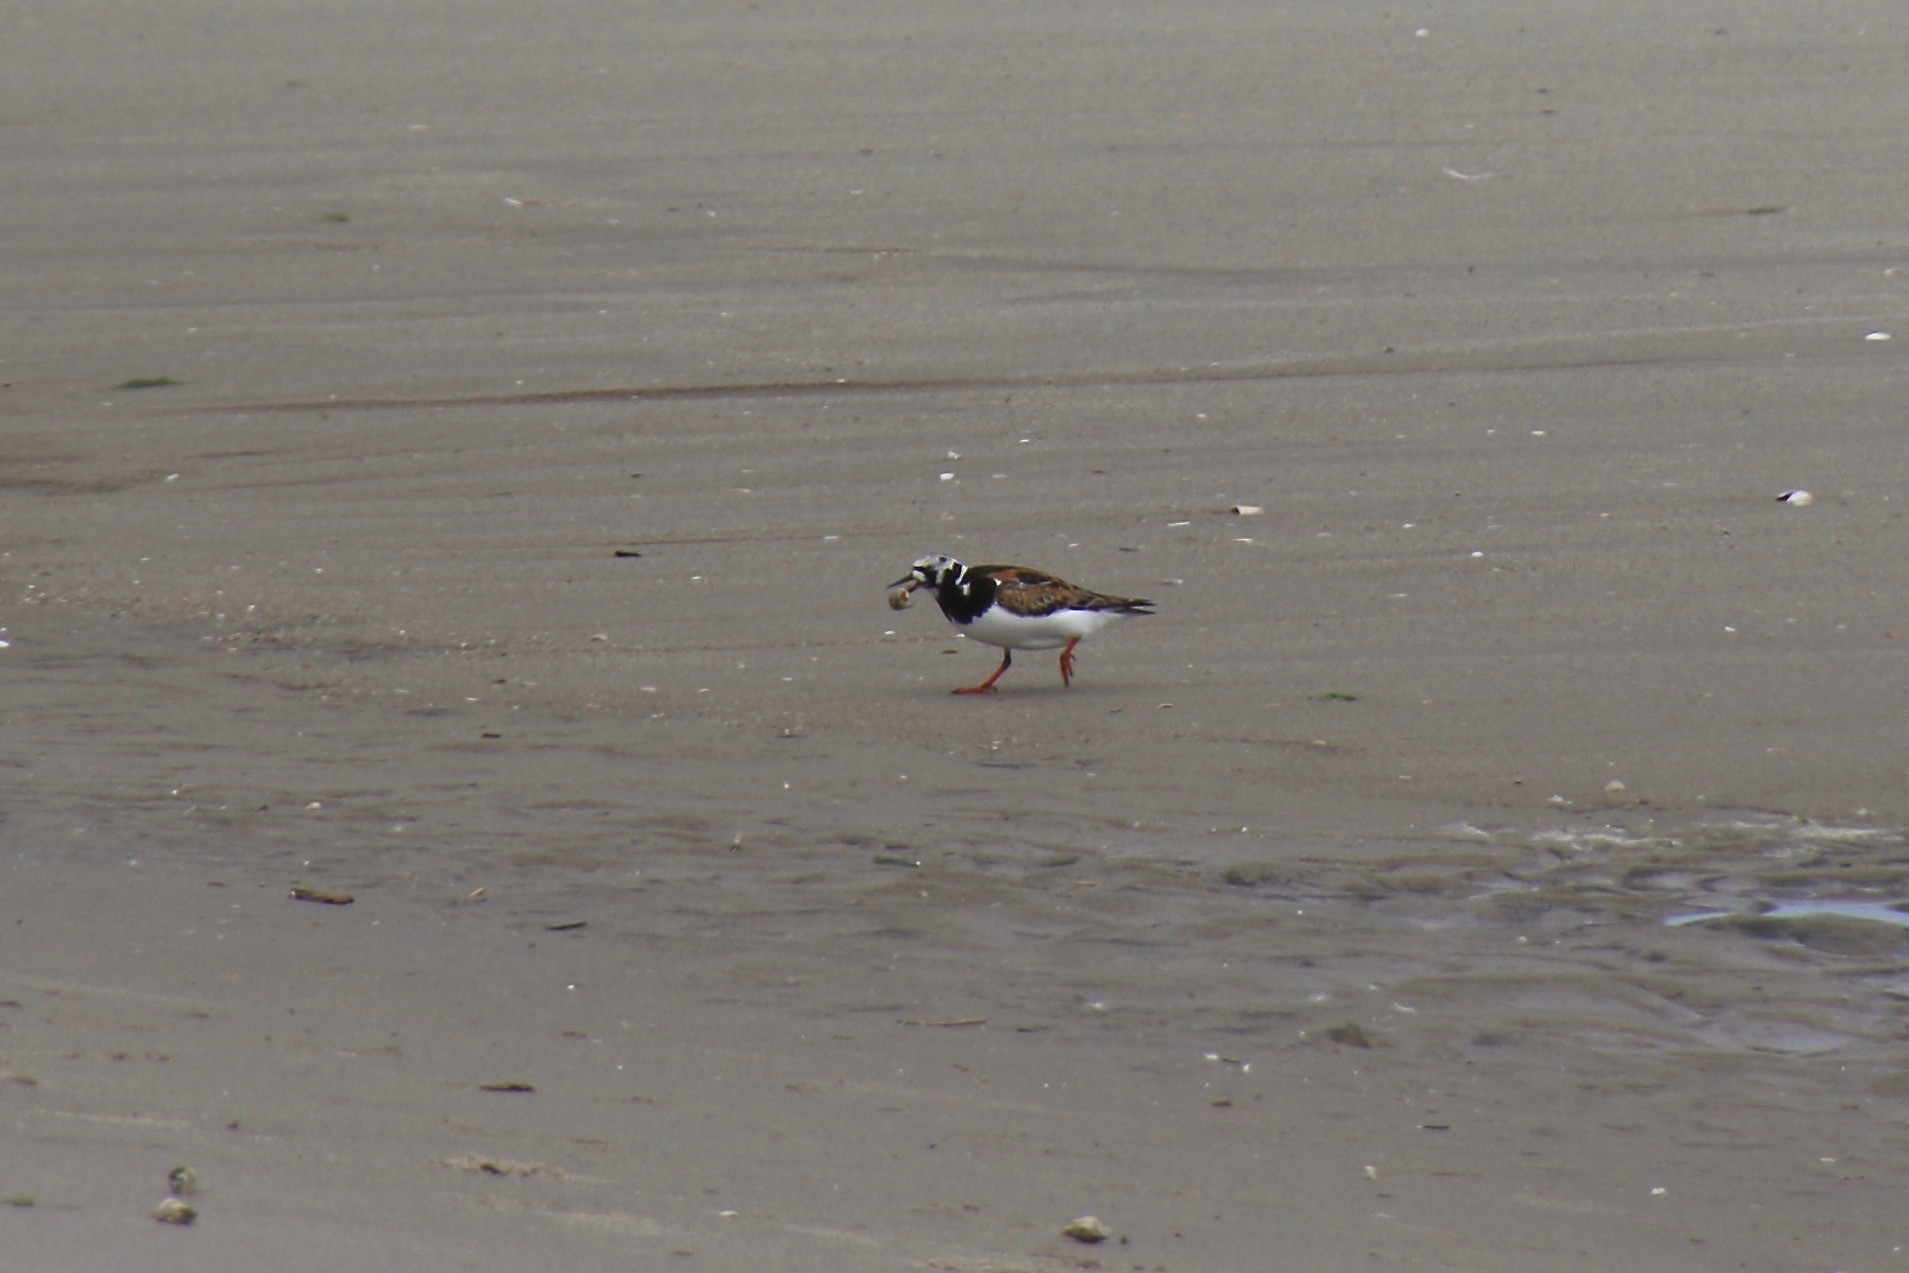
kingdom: Animalia
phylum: Chordata
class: Aves
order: Charadriiformes
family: Scolopacidae
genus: Arenaria
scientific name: Arenaria interpres
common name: Ruddy turnstone
